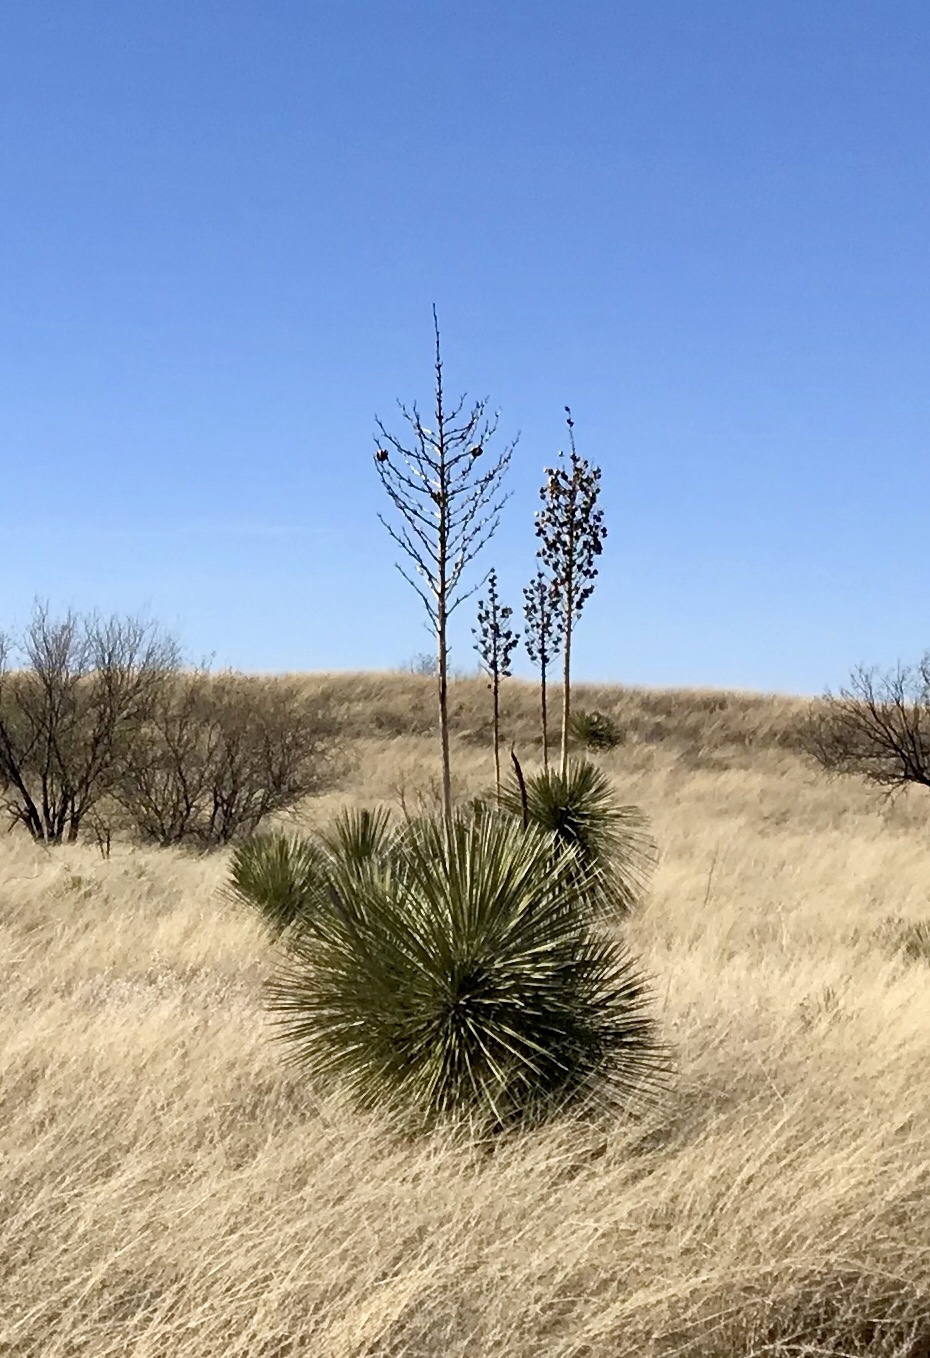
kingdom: Plantae
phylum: Tracheophyta
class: Liliopsida
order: Asparagales
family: Asparagaceae
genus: Yucca
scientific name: Yucca elata
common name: Palmella
